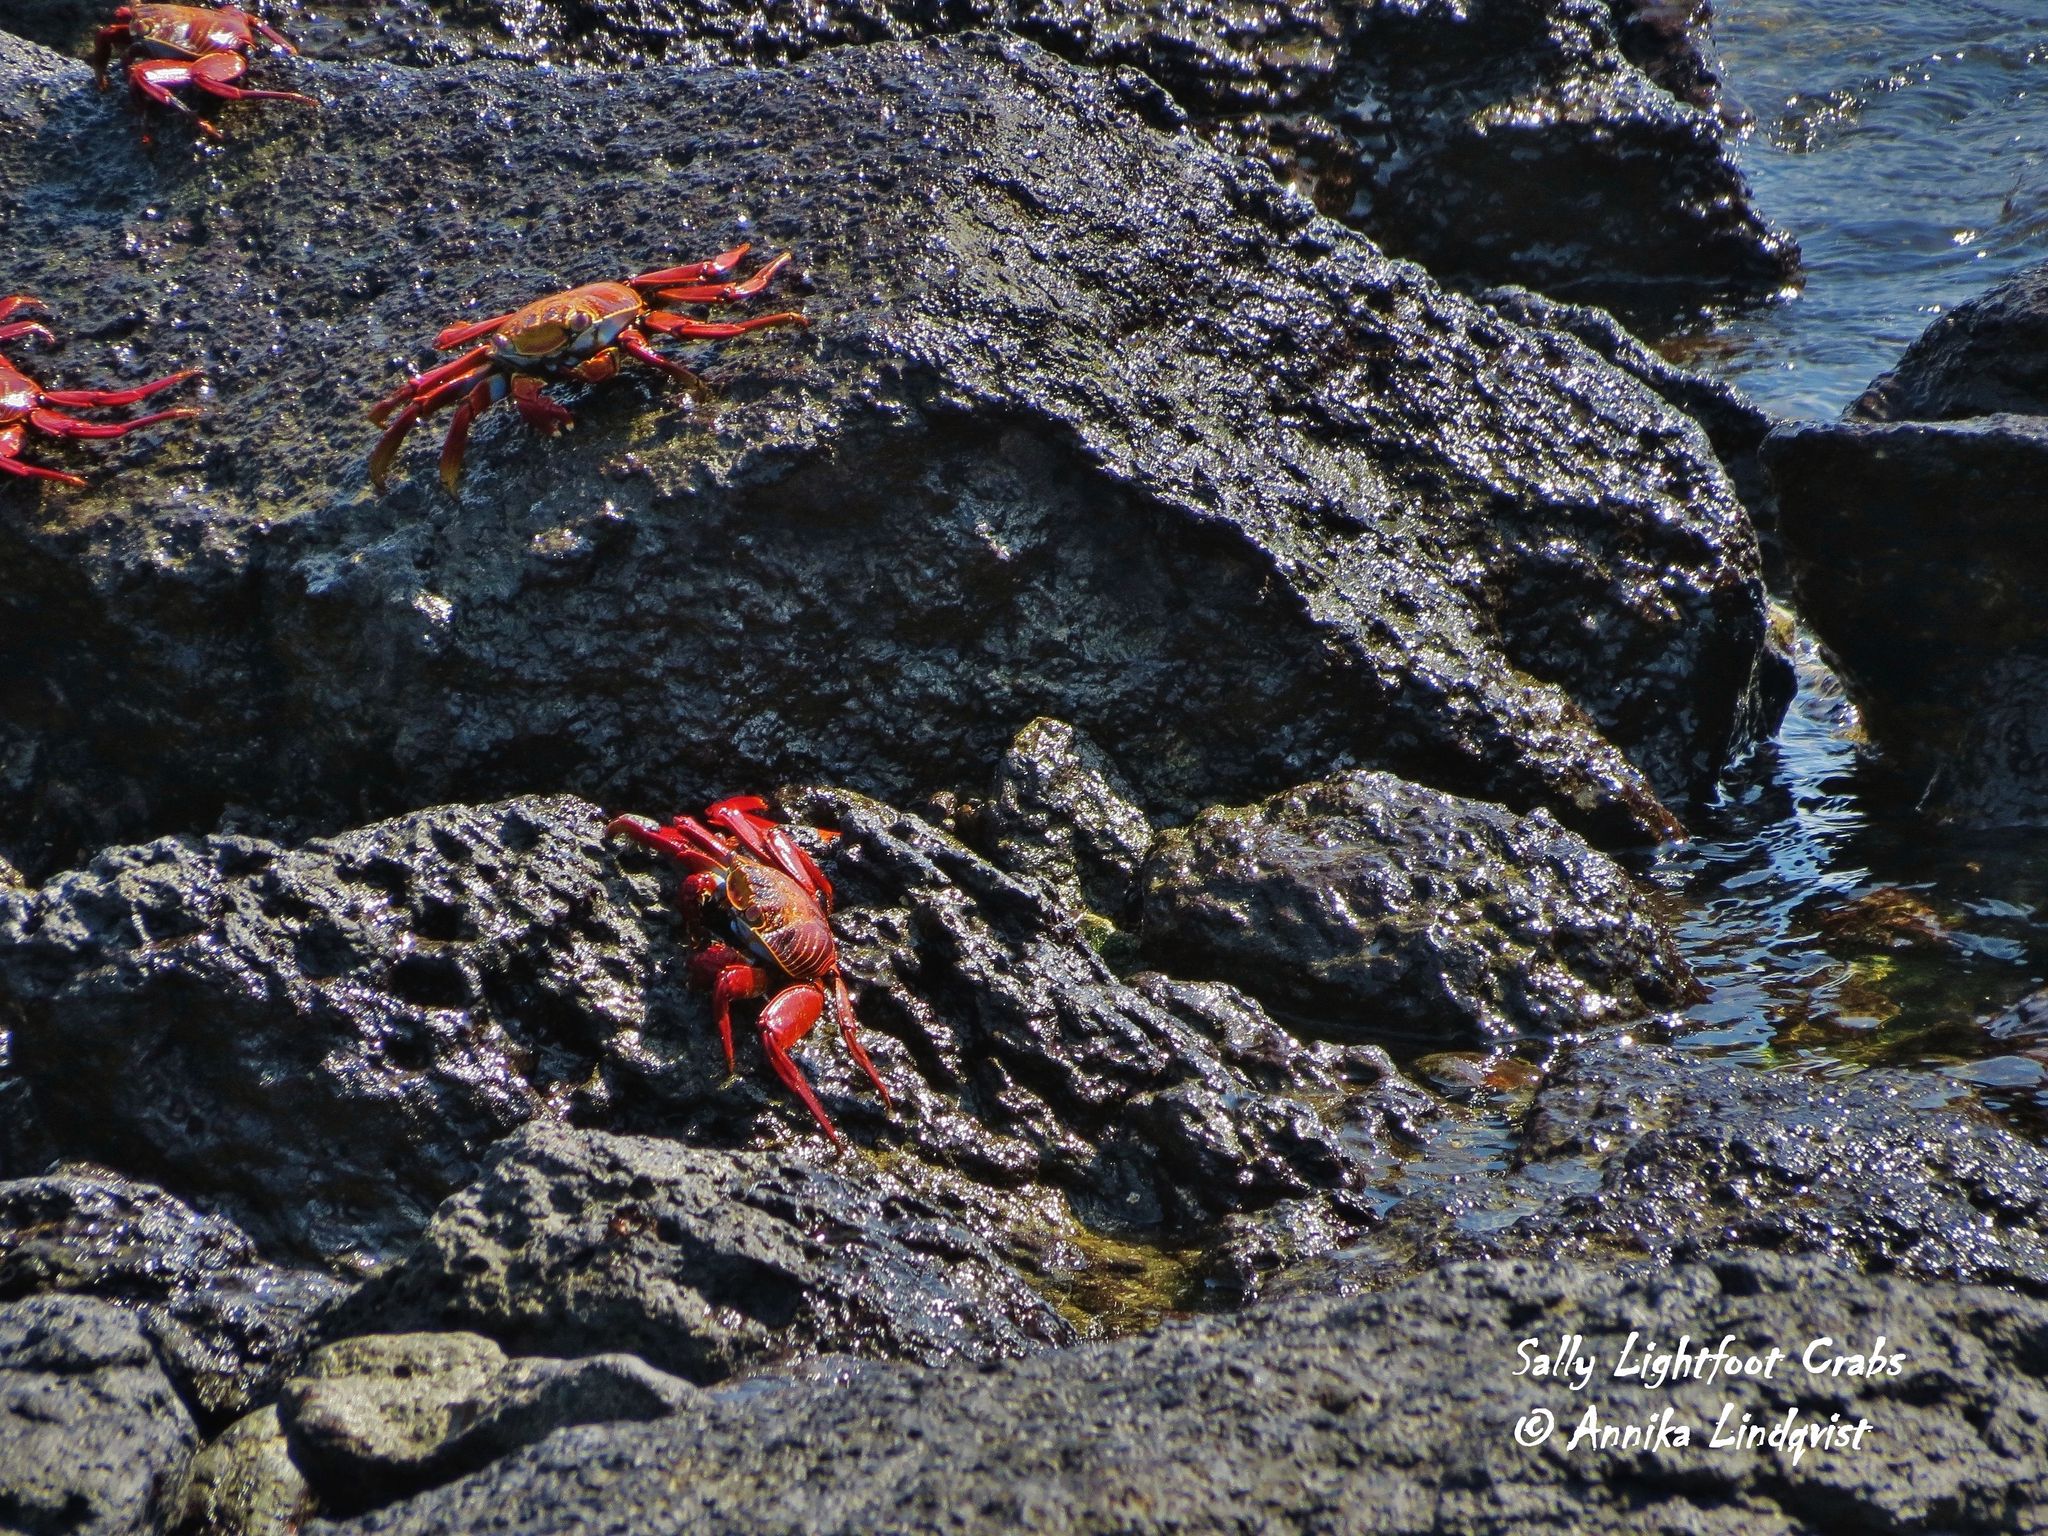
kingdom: Animalia
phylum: Arthropoda
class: Malacostraca
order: Decapoda
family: Grapsidae
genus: Grapsus
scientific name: Grapsus grapsus
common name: Sally lightfoot
